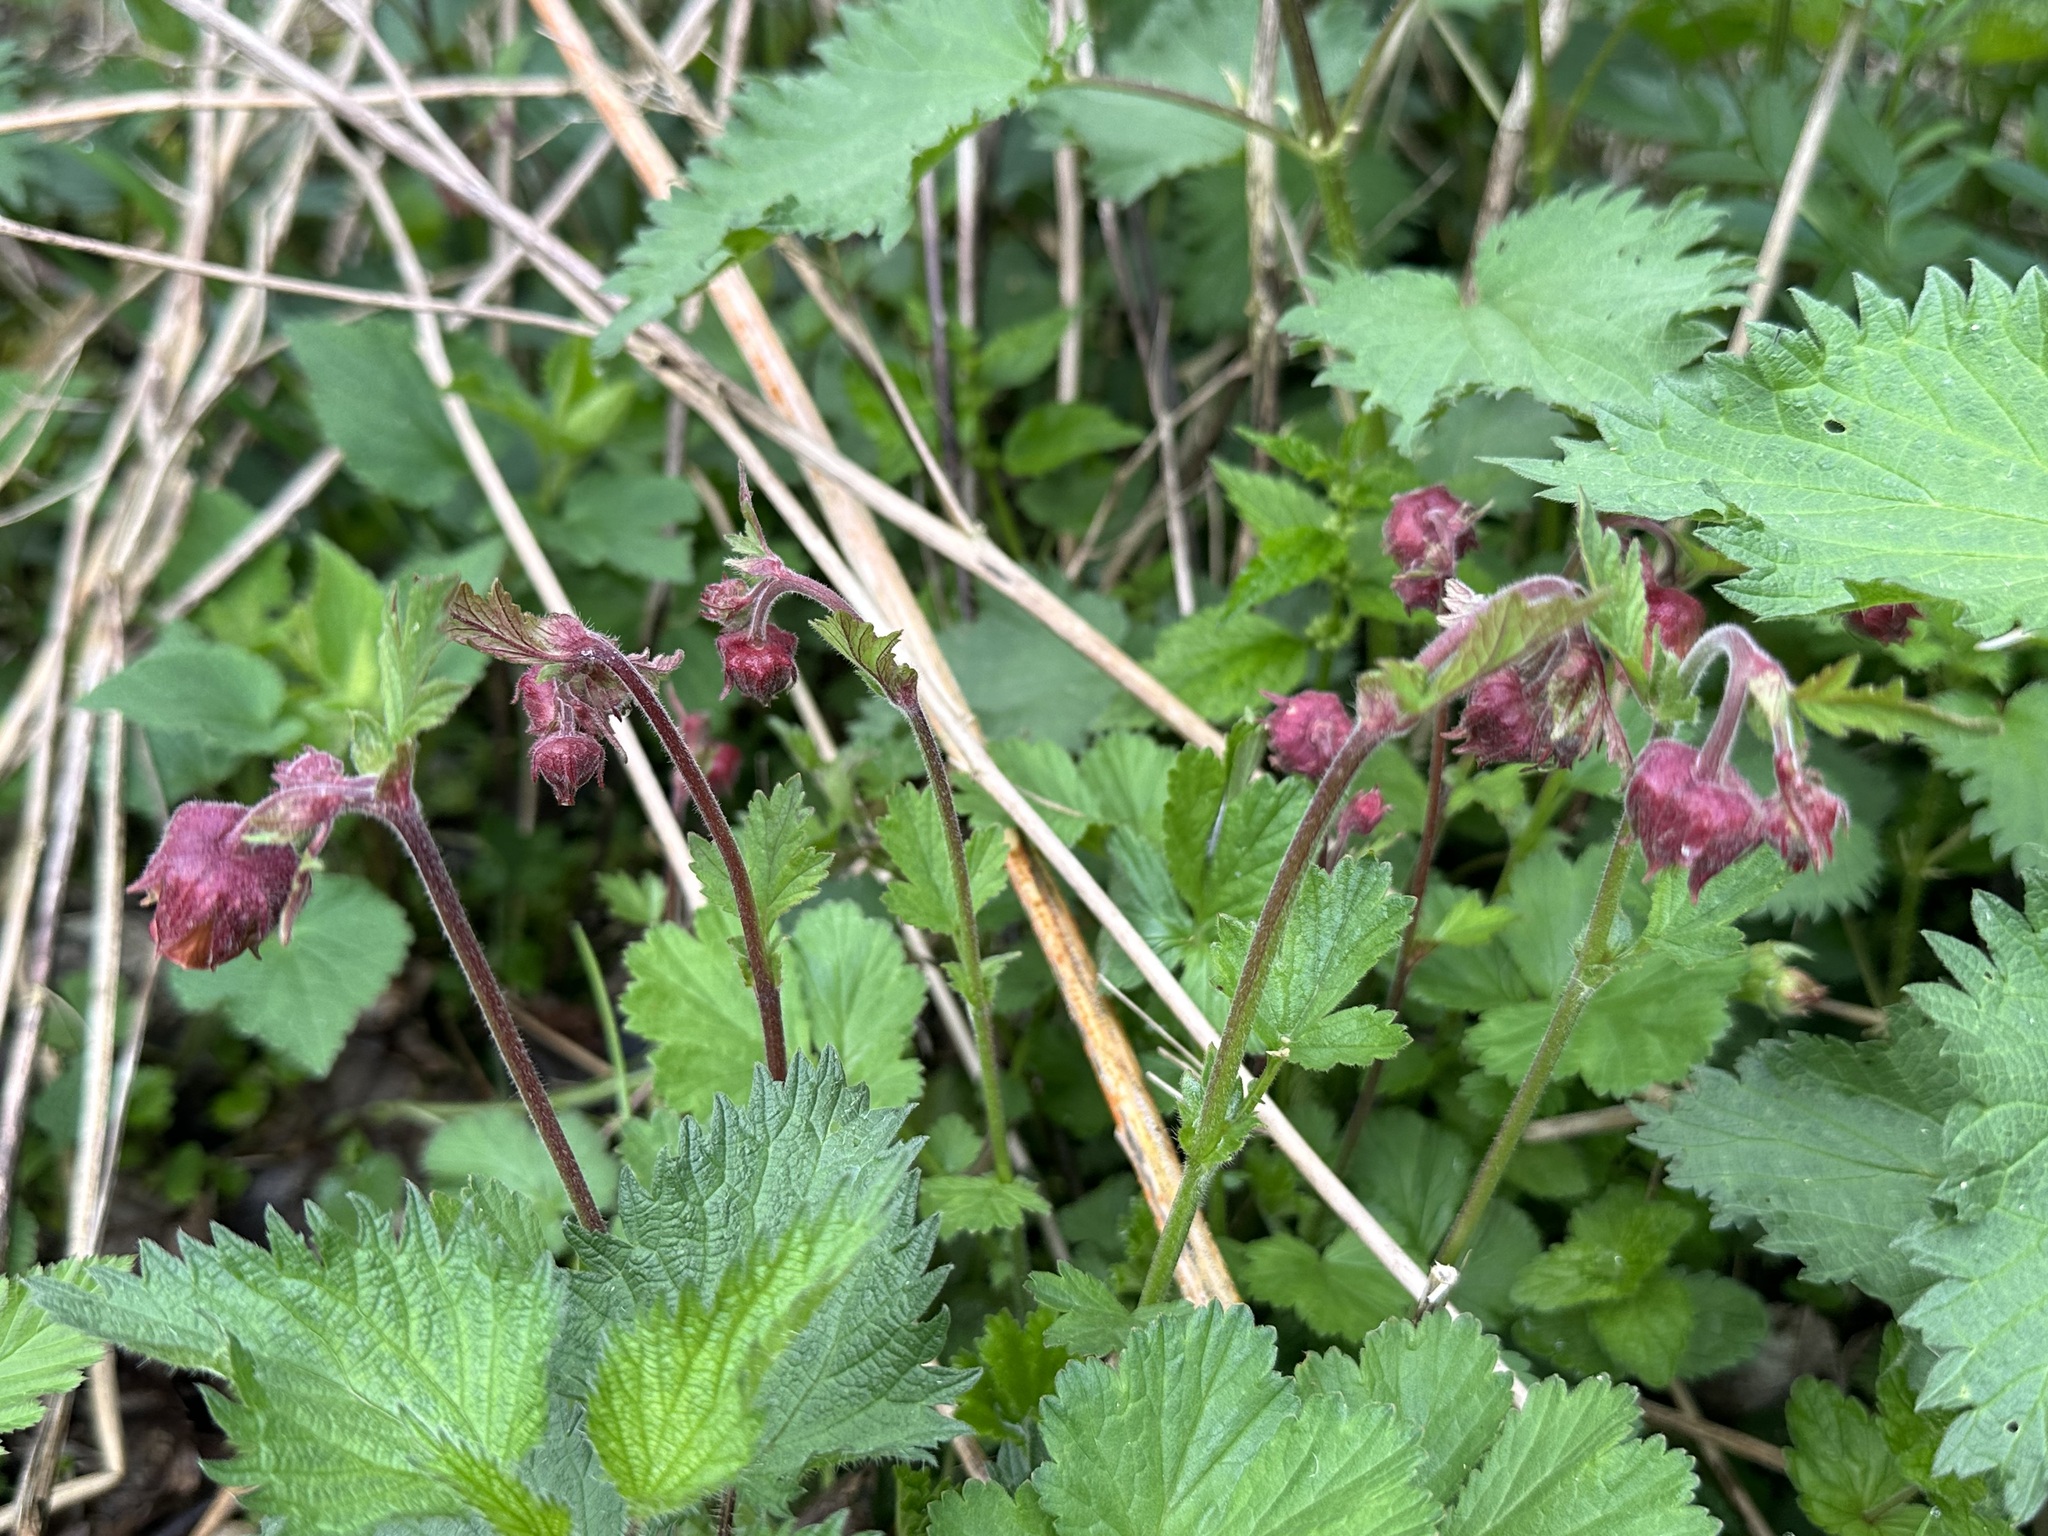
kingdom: Plantae
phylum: Tracheophyta
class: Magnoliopsida
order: Rosales
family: Rosaceae
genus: Geum
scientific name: Geum rivale
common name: Water avens
